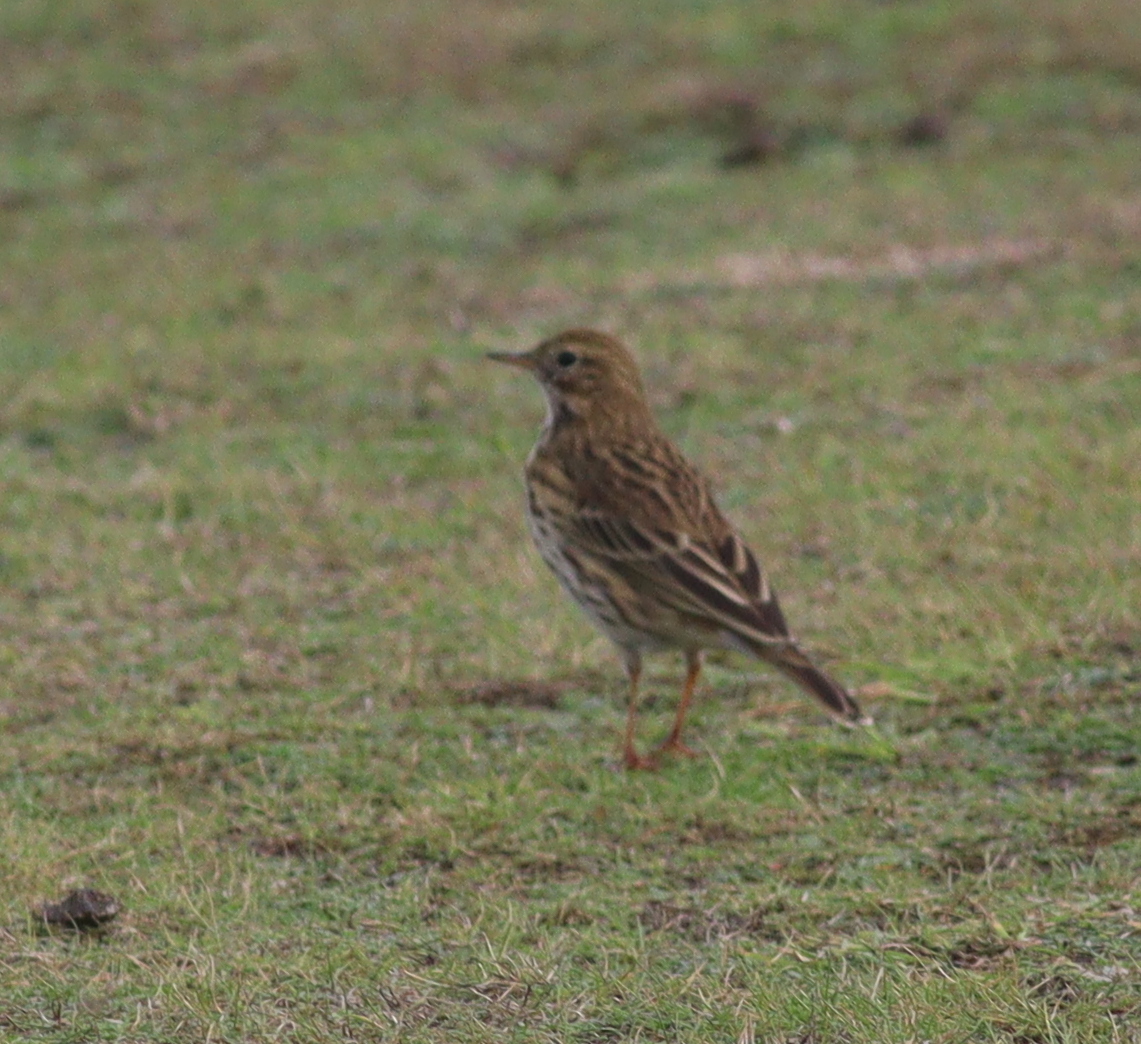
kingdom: Animalia
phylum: Chordata
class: Aves
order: Passeriformes
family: Motacillidae
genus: Anthus
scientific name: Anthus pratensis
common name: Meadow pipit
